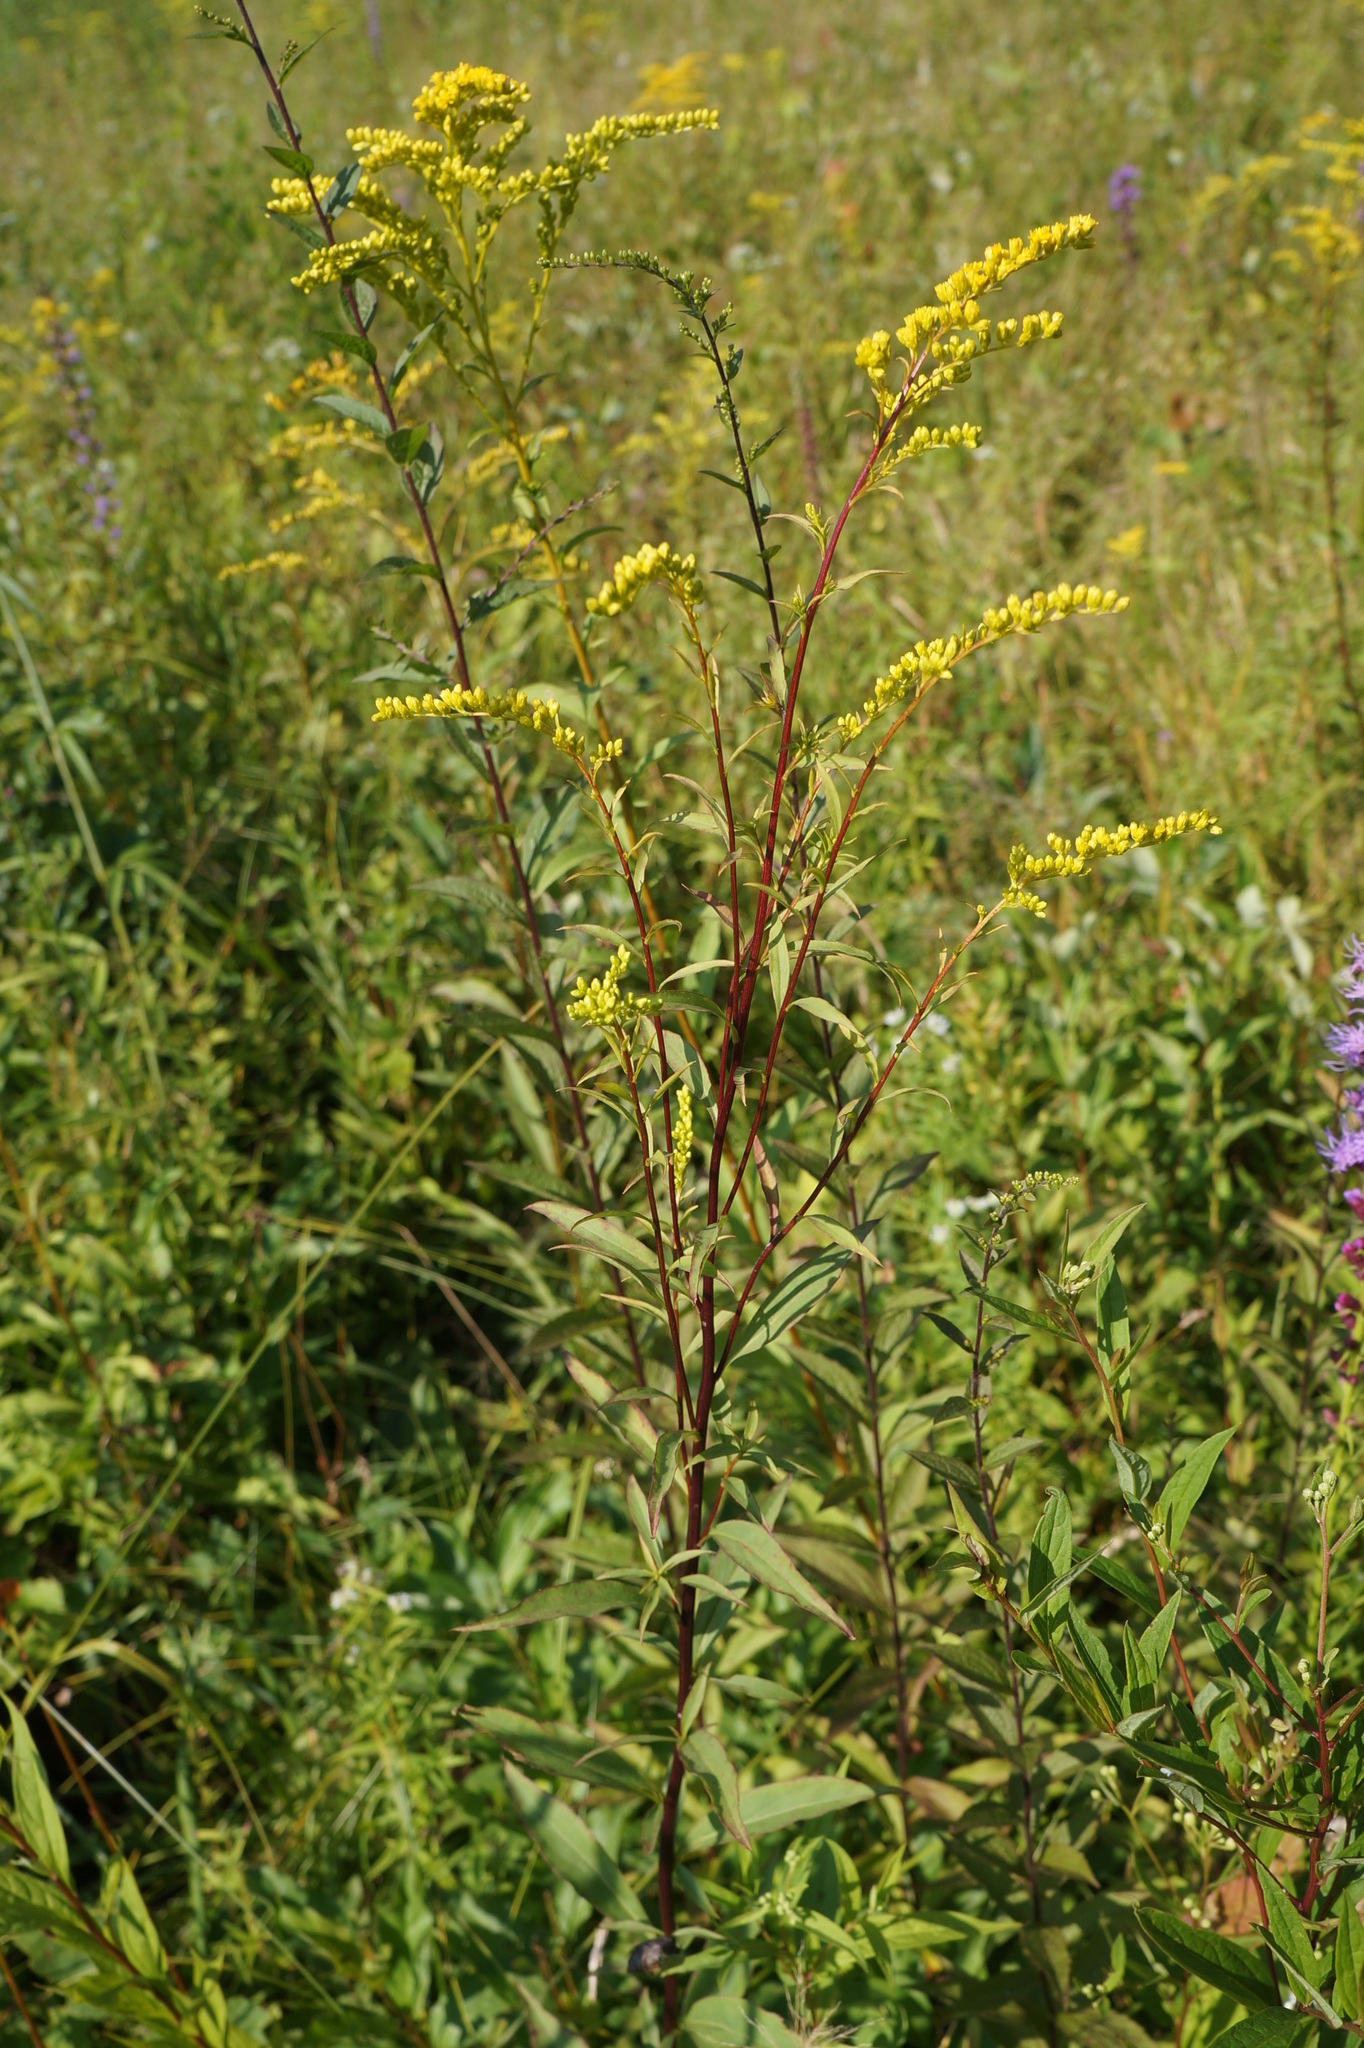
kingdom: Plantae
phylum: Tracheophyta
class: Magnoliopsida
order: Asterales
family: Asteraceae
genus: Solidago
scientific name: Solidago juncea
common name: Early goldenrod
